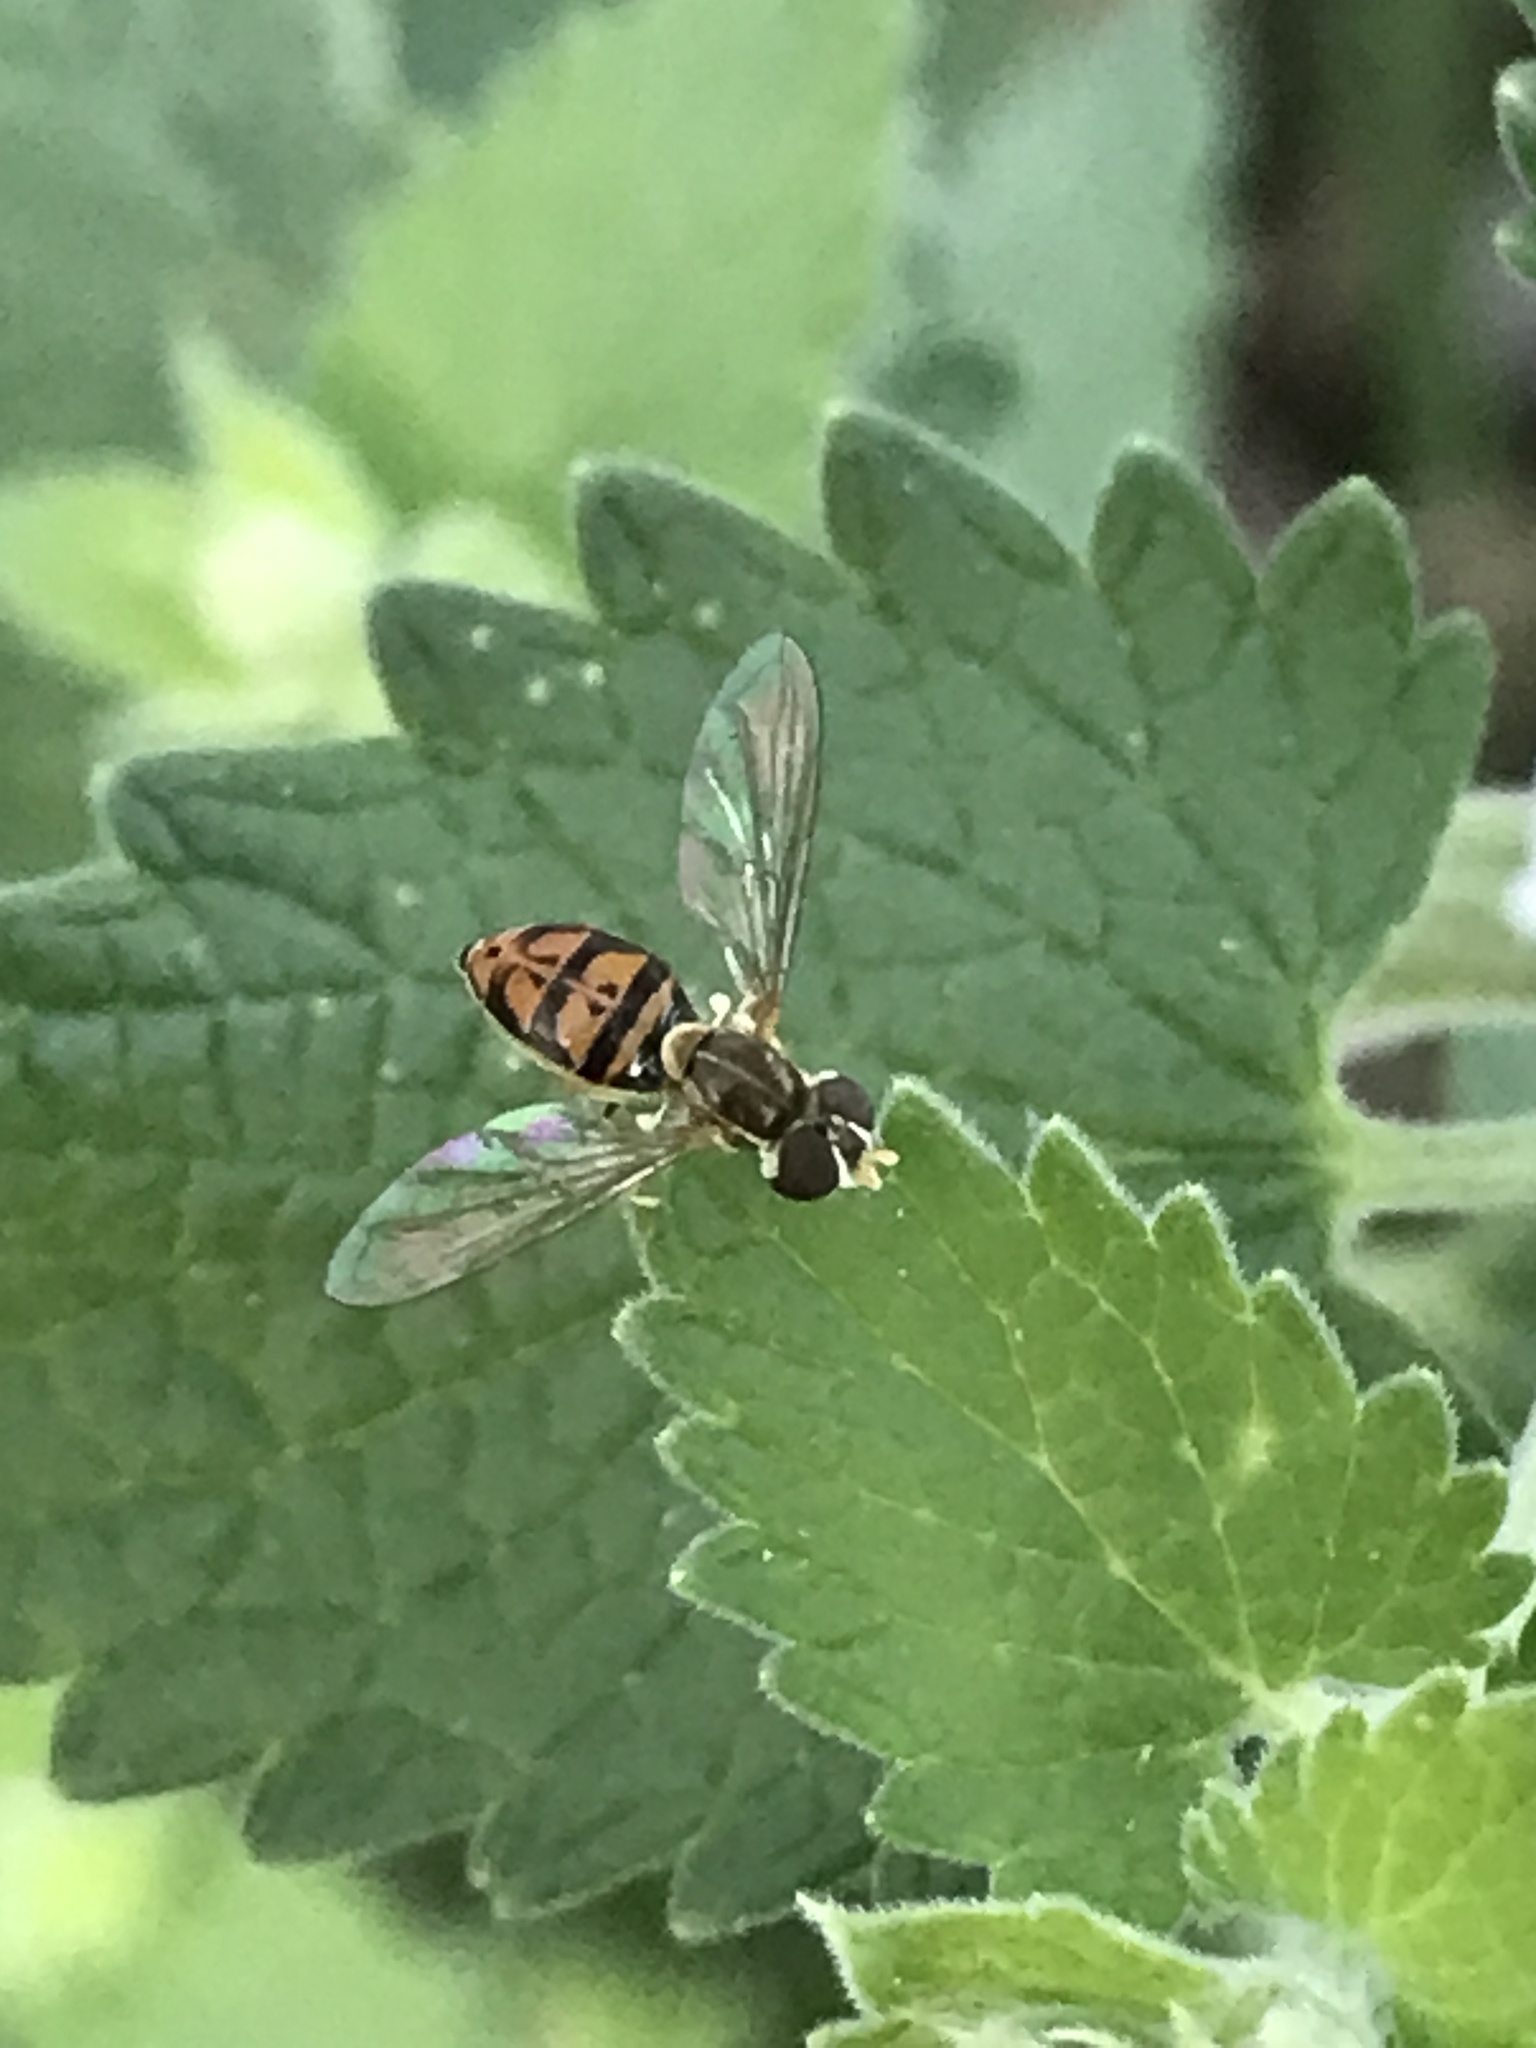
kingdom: Animalia
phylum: Arthropoda
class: Insecta
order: Diptera
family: Syrphidae
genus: Toxomerus
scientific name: Toxomerus marginatus
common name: Syrphid fly
